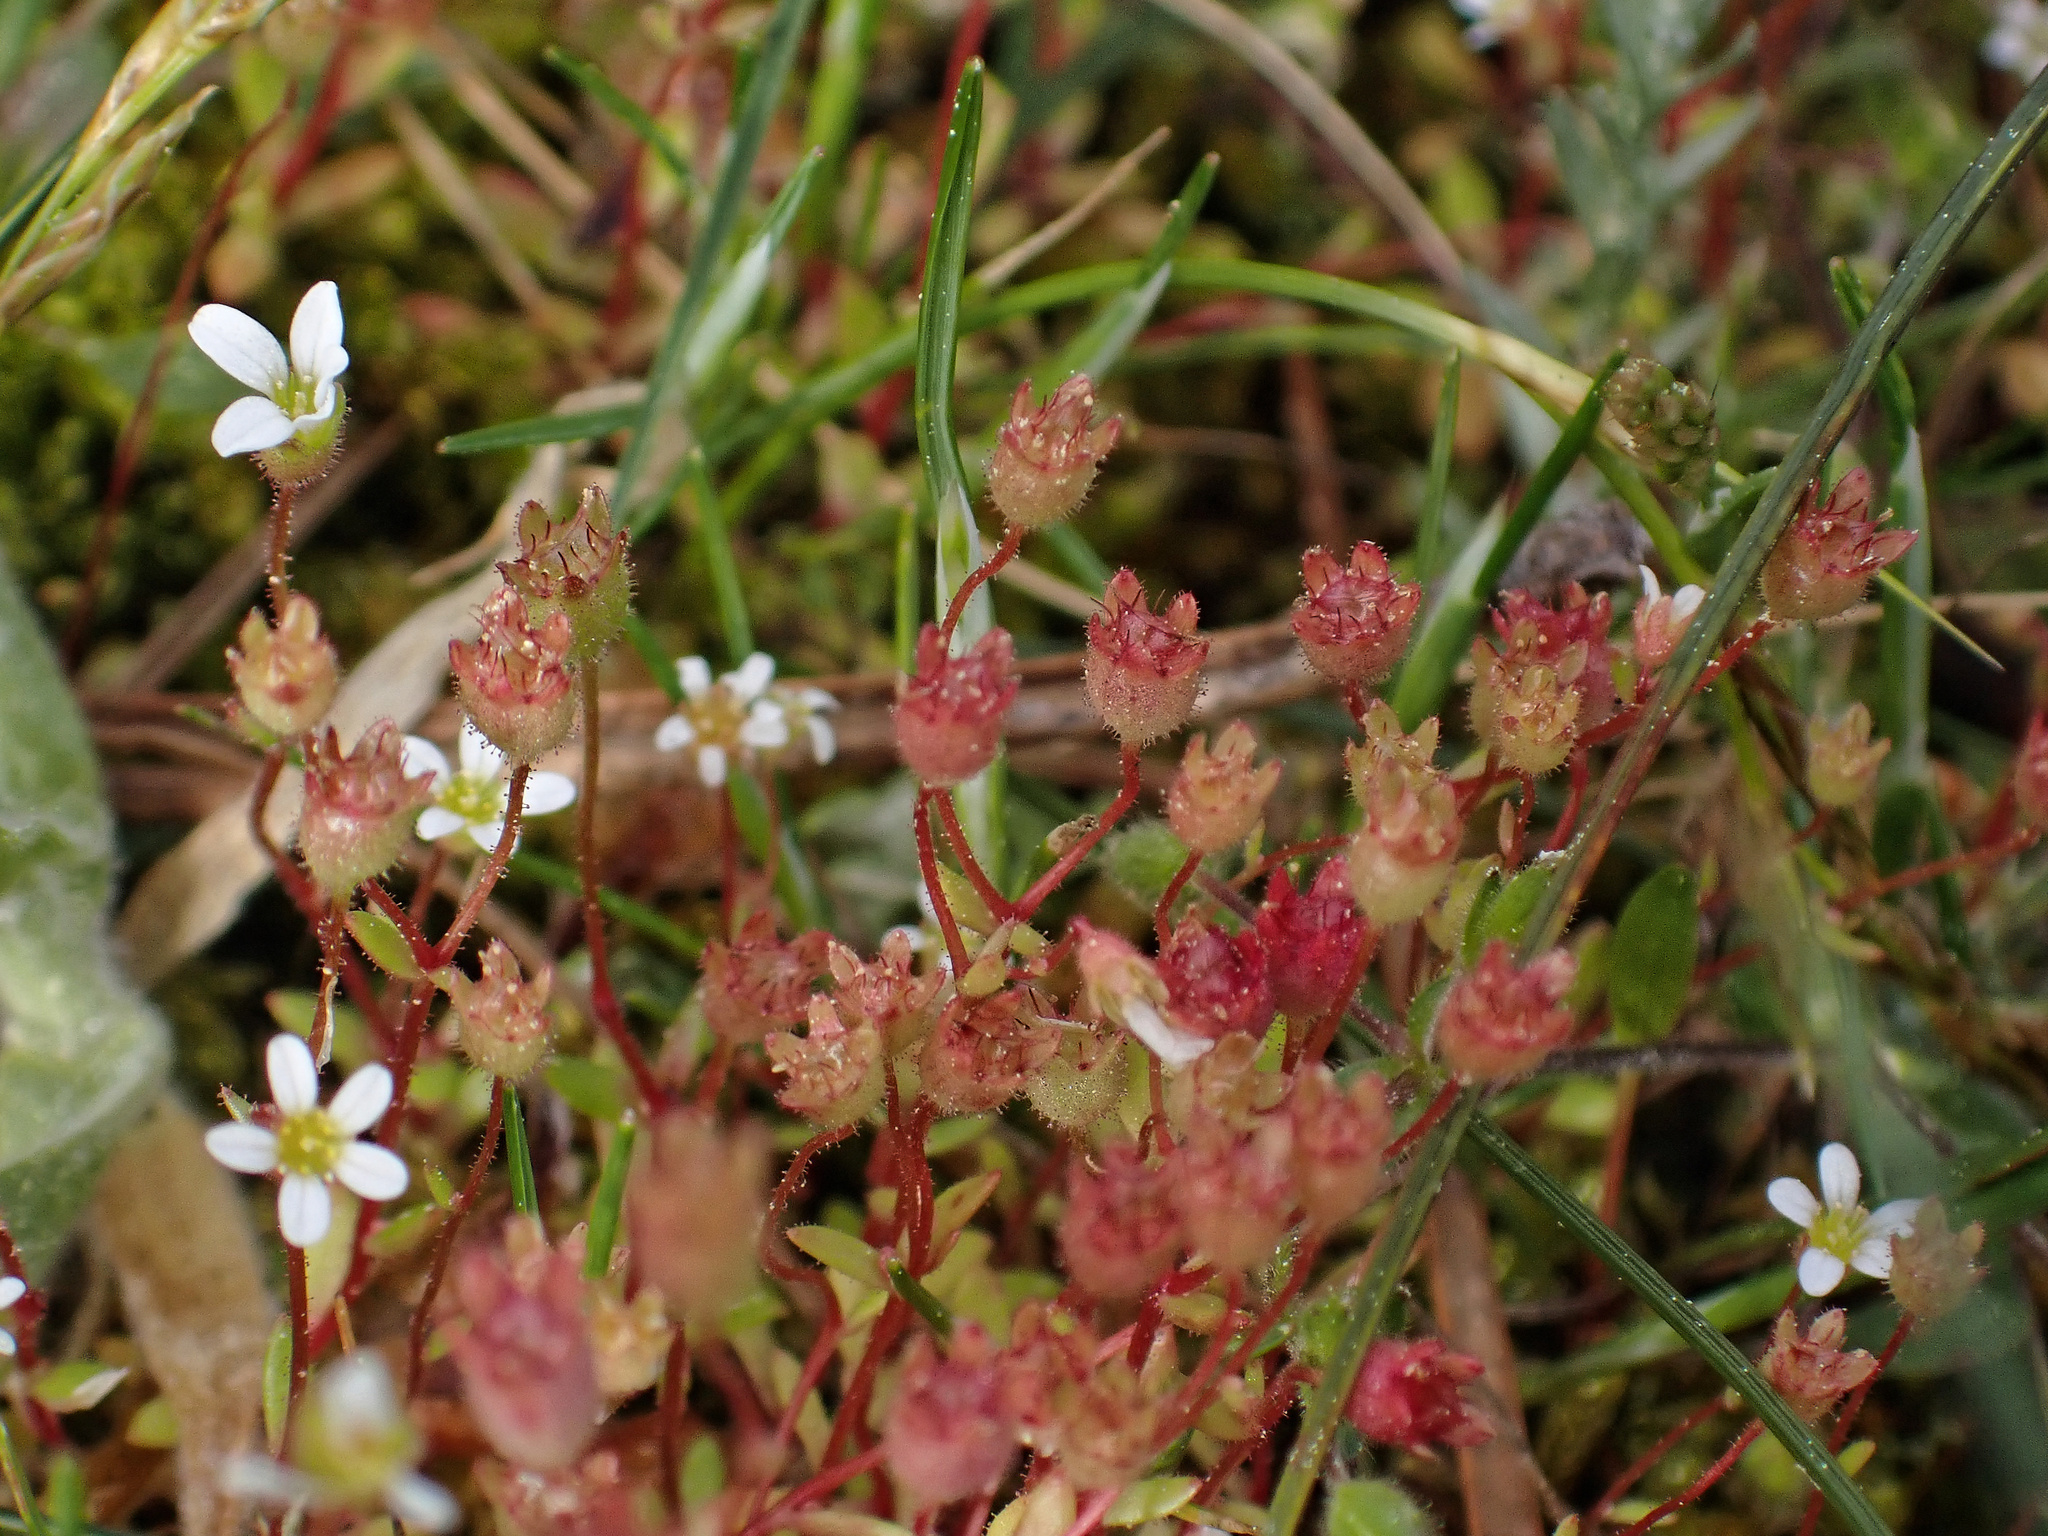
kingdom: Plantae
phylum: Tracheophyta
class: Magnoliopsida
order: Saxifragales
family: Saxifragaceae
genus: Saxifraga
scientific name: Saxifraga tridactylites
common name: Rue-leaved saxifrage
